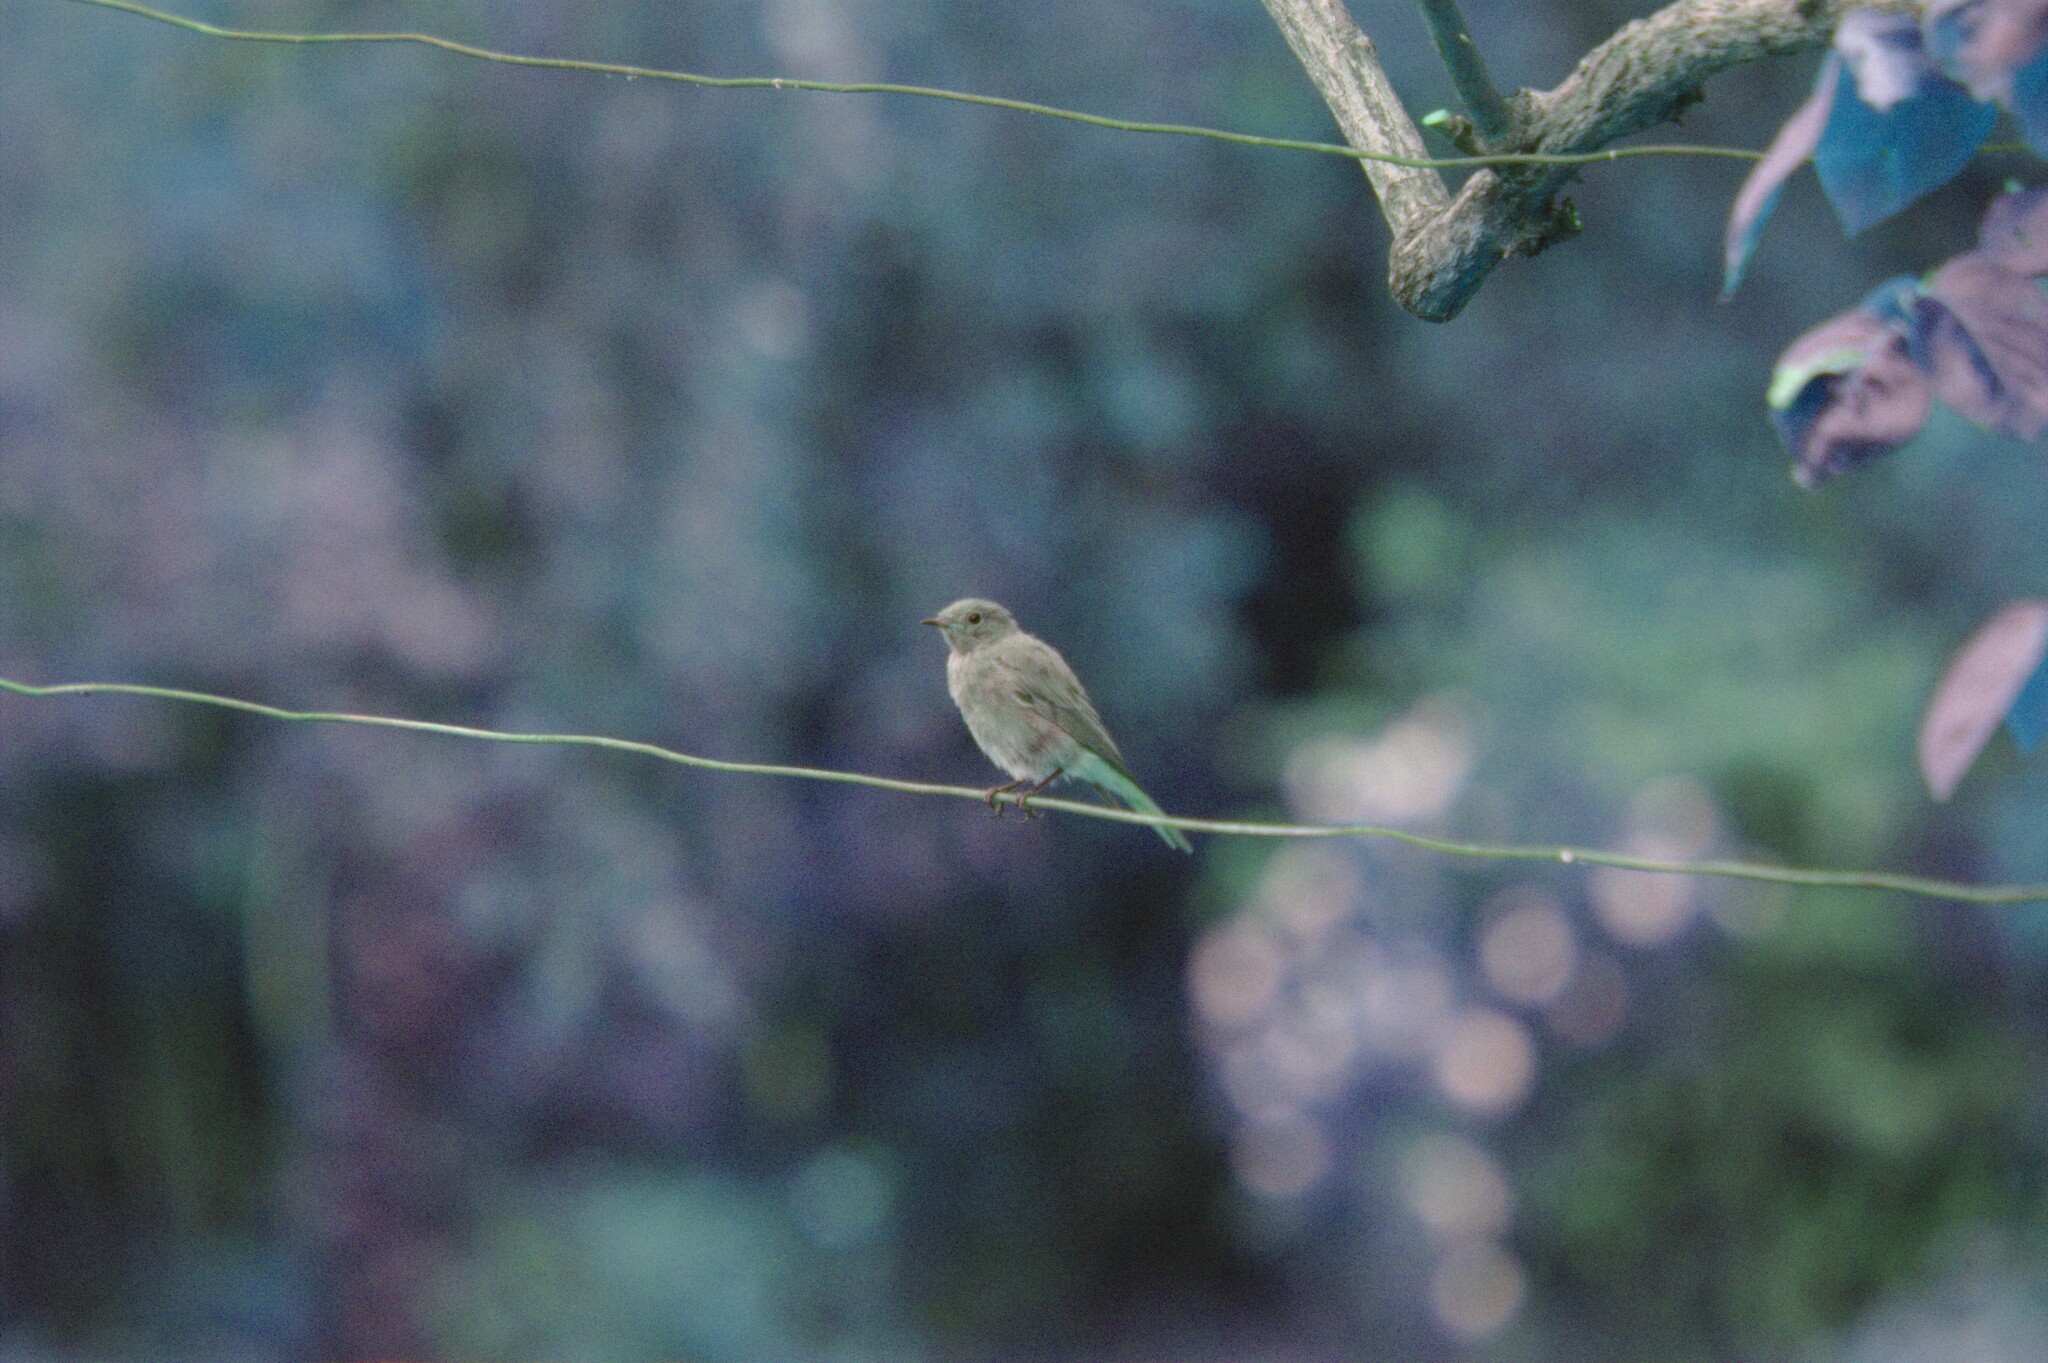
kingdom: Animalia
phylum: Chordata
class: Aves
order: Passeriformes
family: Muscicapidae
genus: Phoenicurus
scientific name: Phoenicurus ochruros
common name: Black redstart
